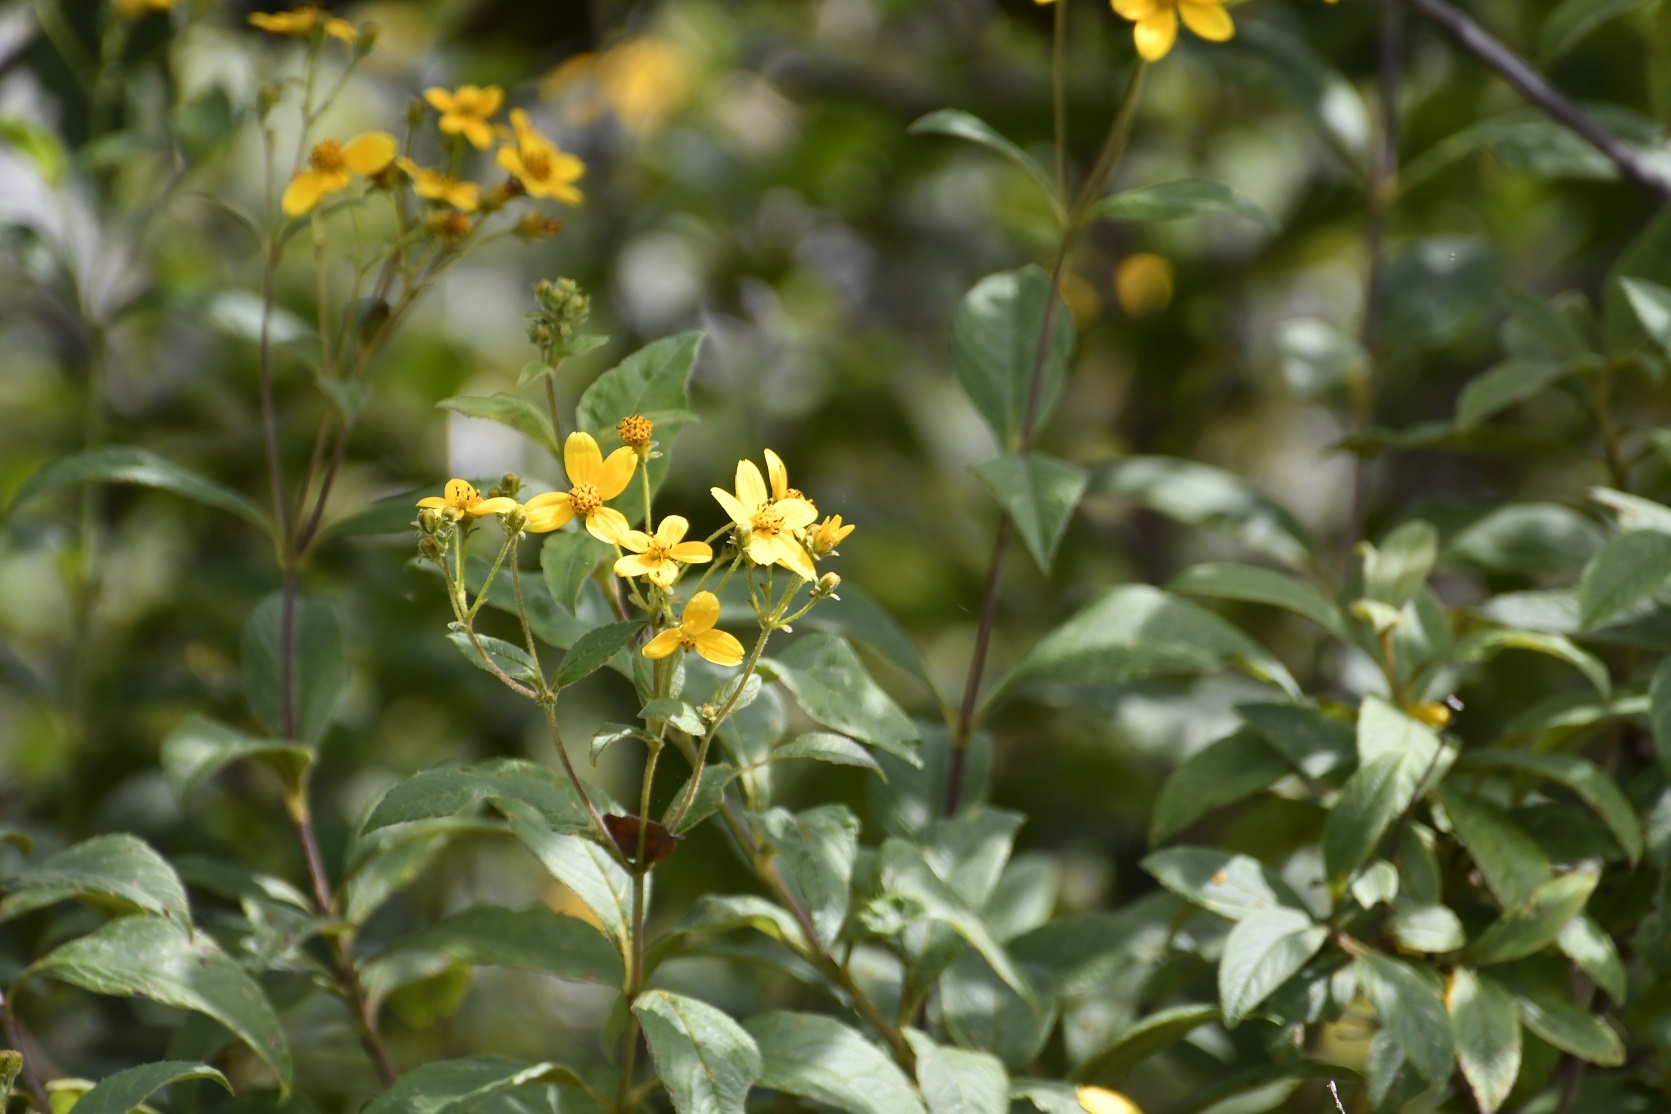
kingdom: Plantae
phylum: Tracheophyta
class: Magnoliopsida
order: Asterales
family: Asteraceae
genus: Electranthera
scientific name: Electranthera mutica
